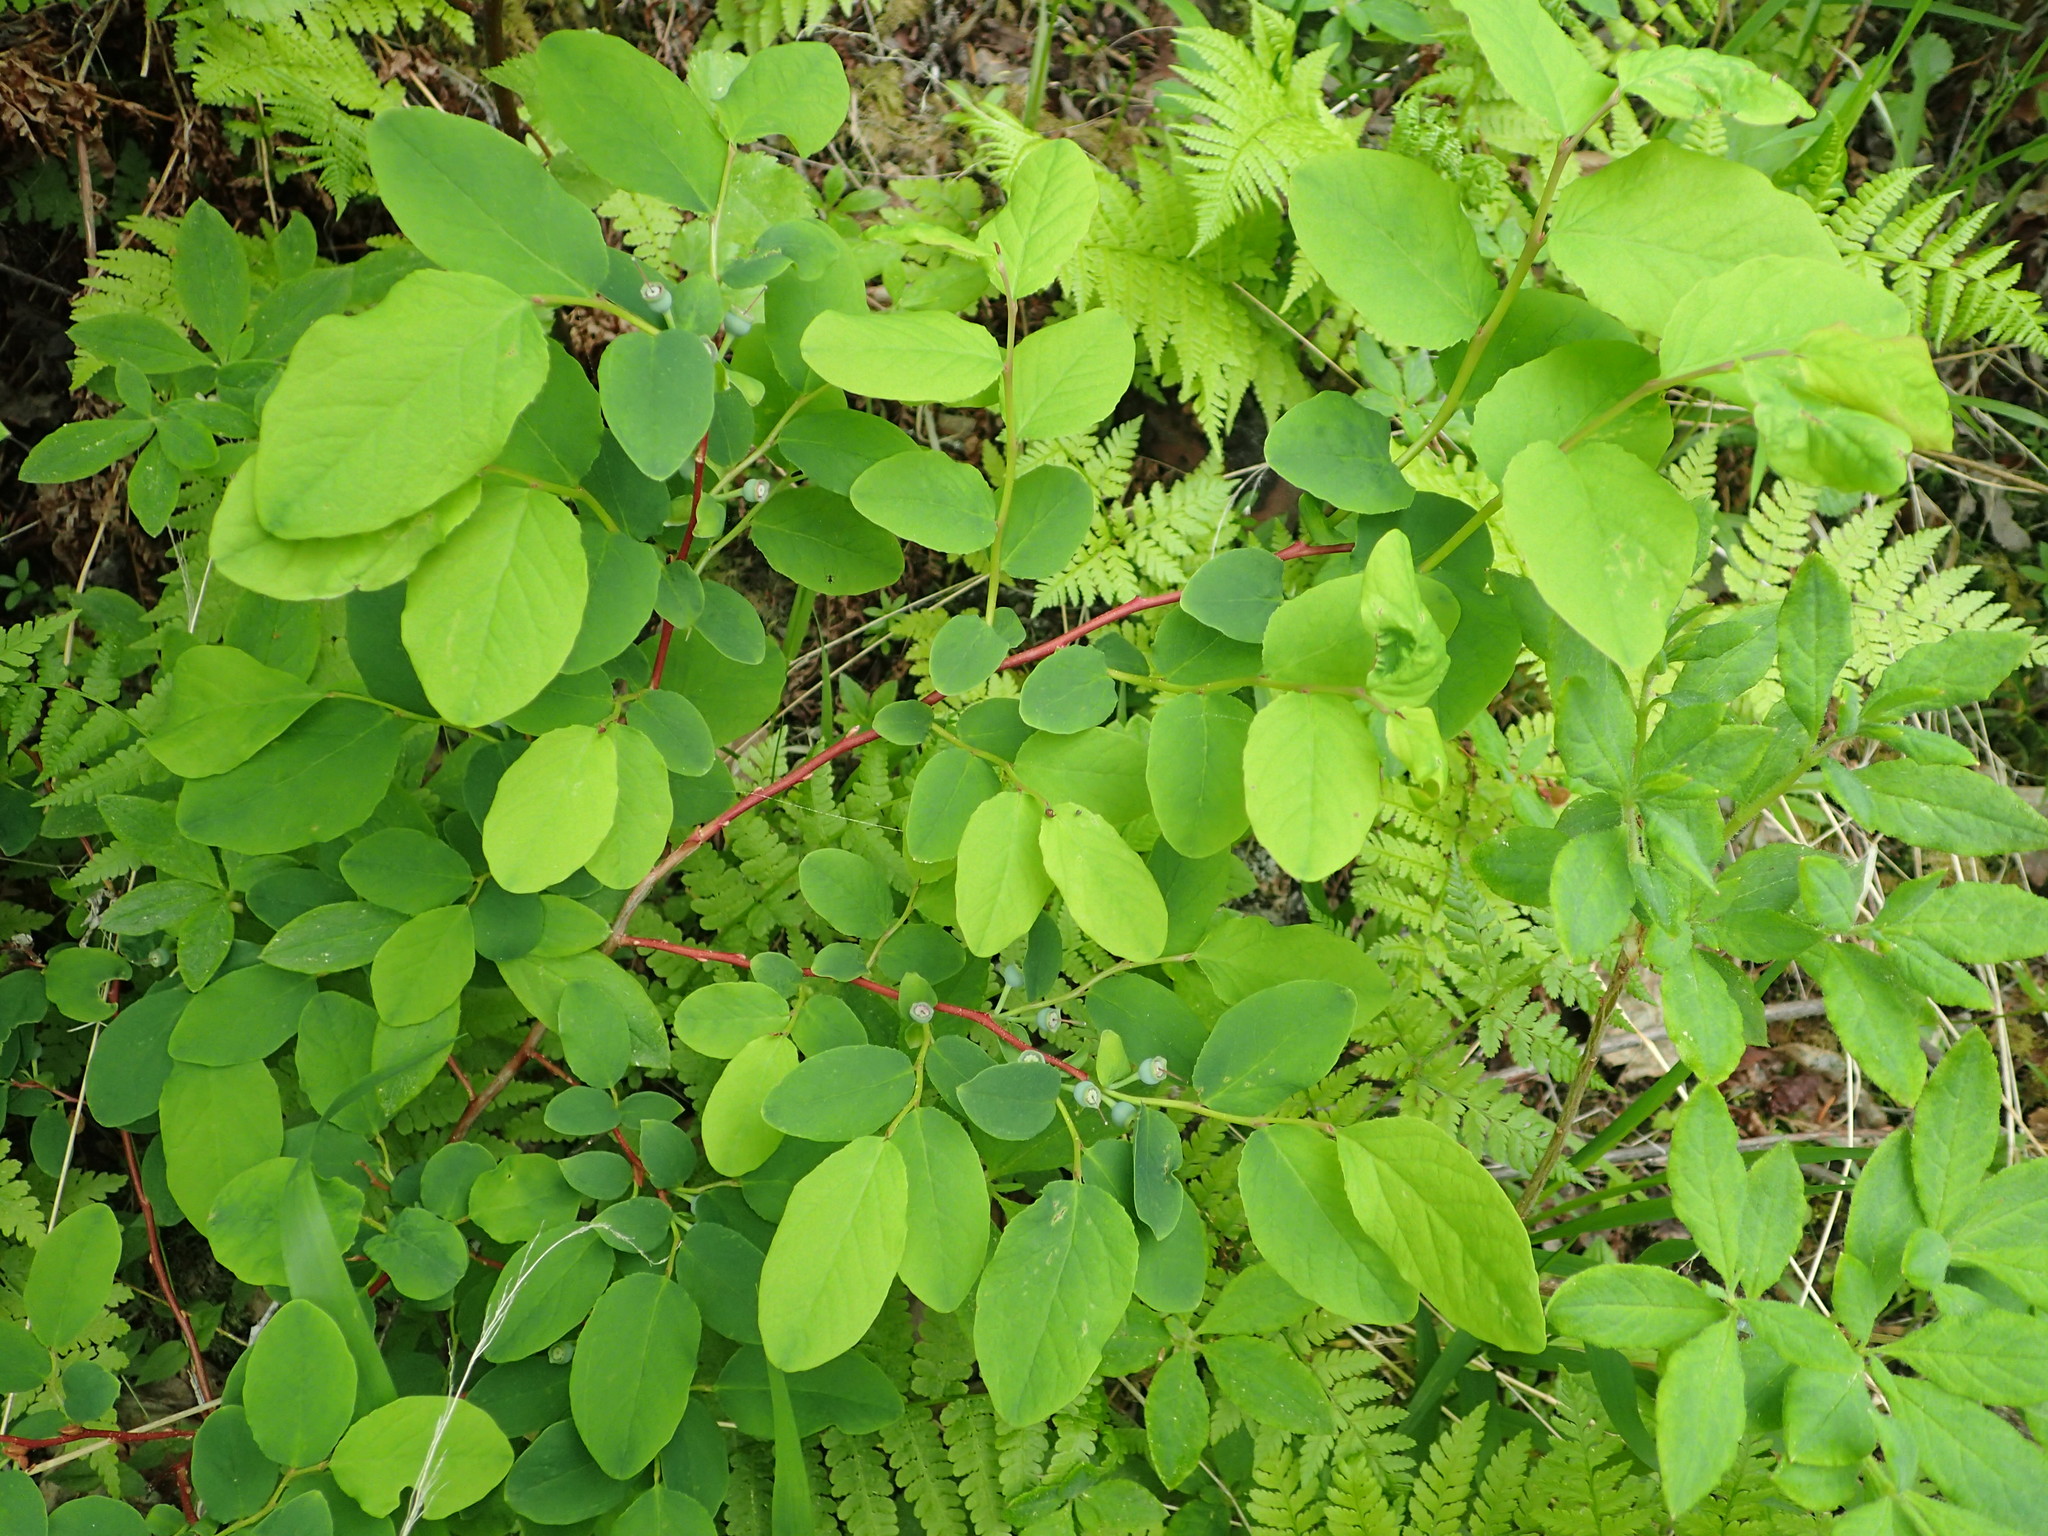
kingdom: Plantae
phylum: Tracheophyta
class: Magnoliopsida
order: Ericales
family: Ericaceae
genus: Vaccinium
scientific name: Vaccinium ovalifolium
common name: Early blueberry
